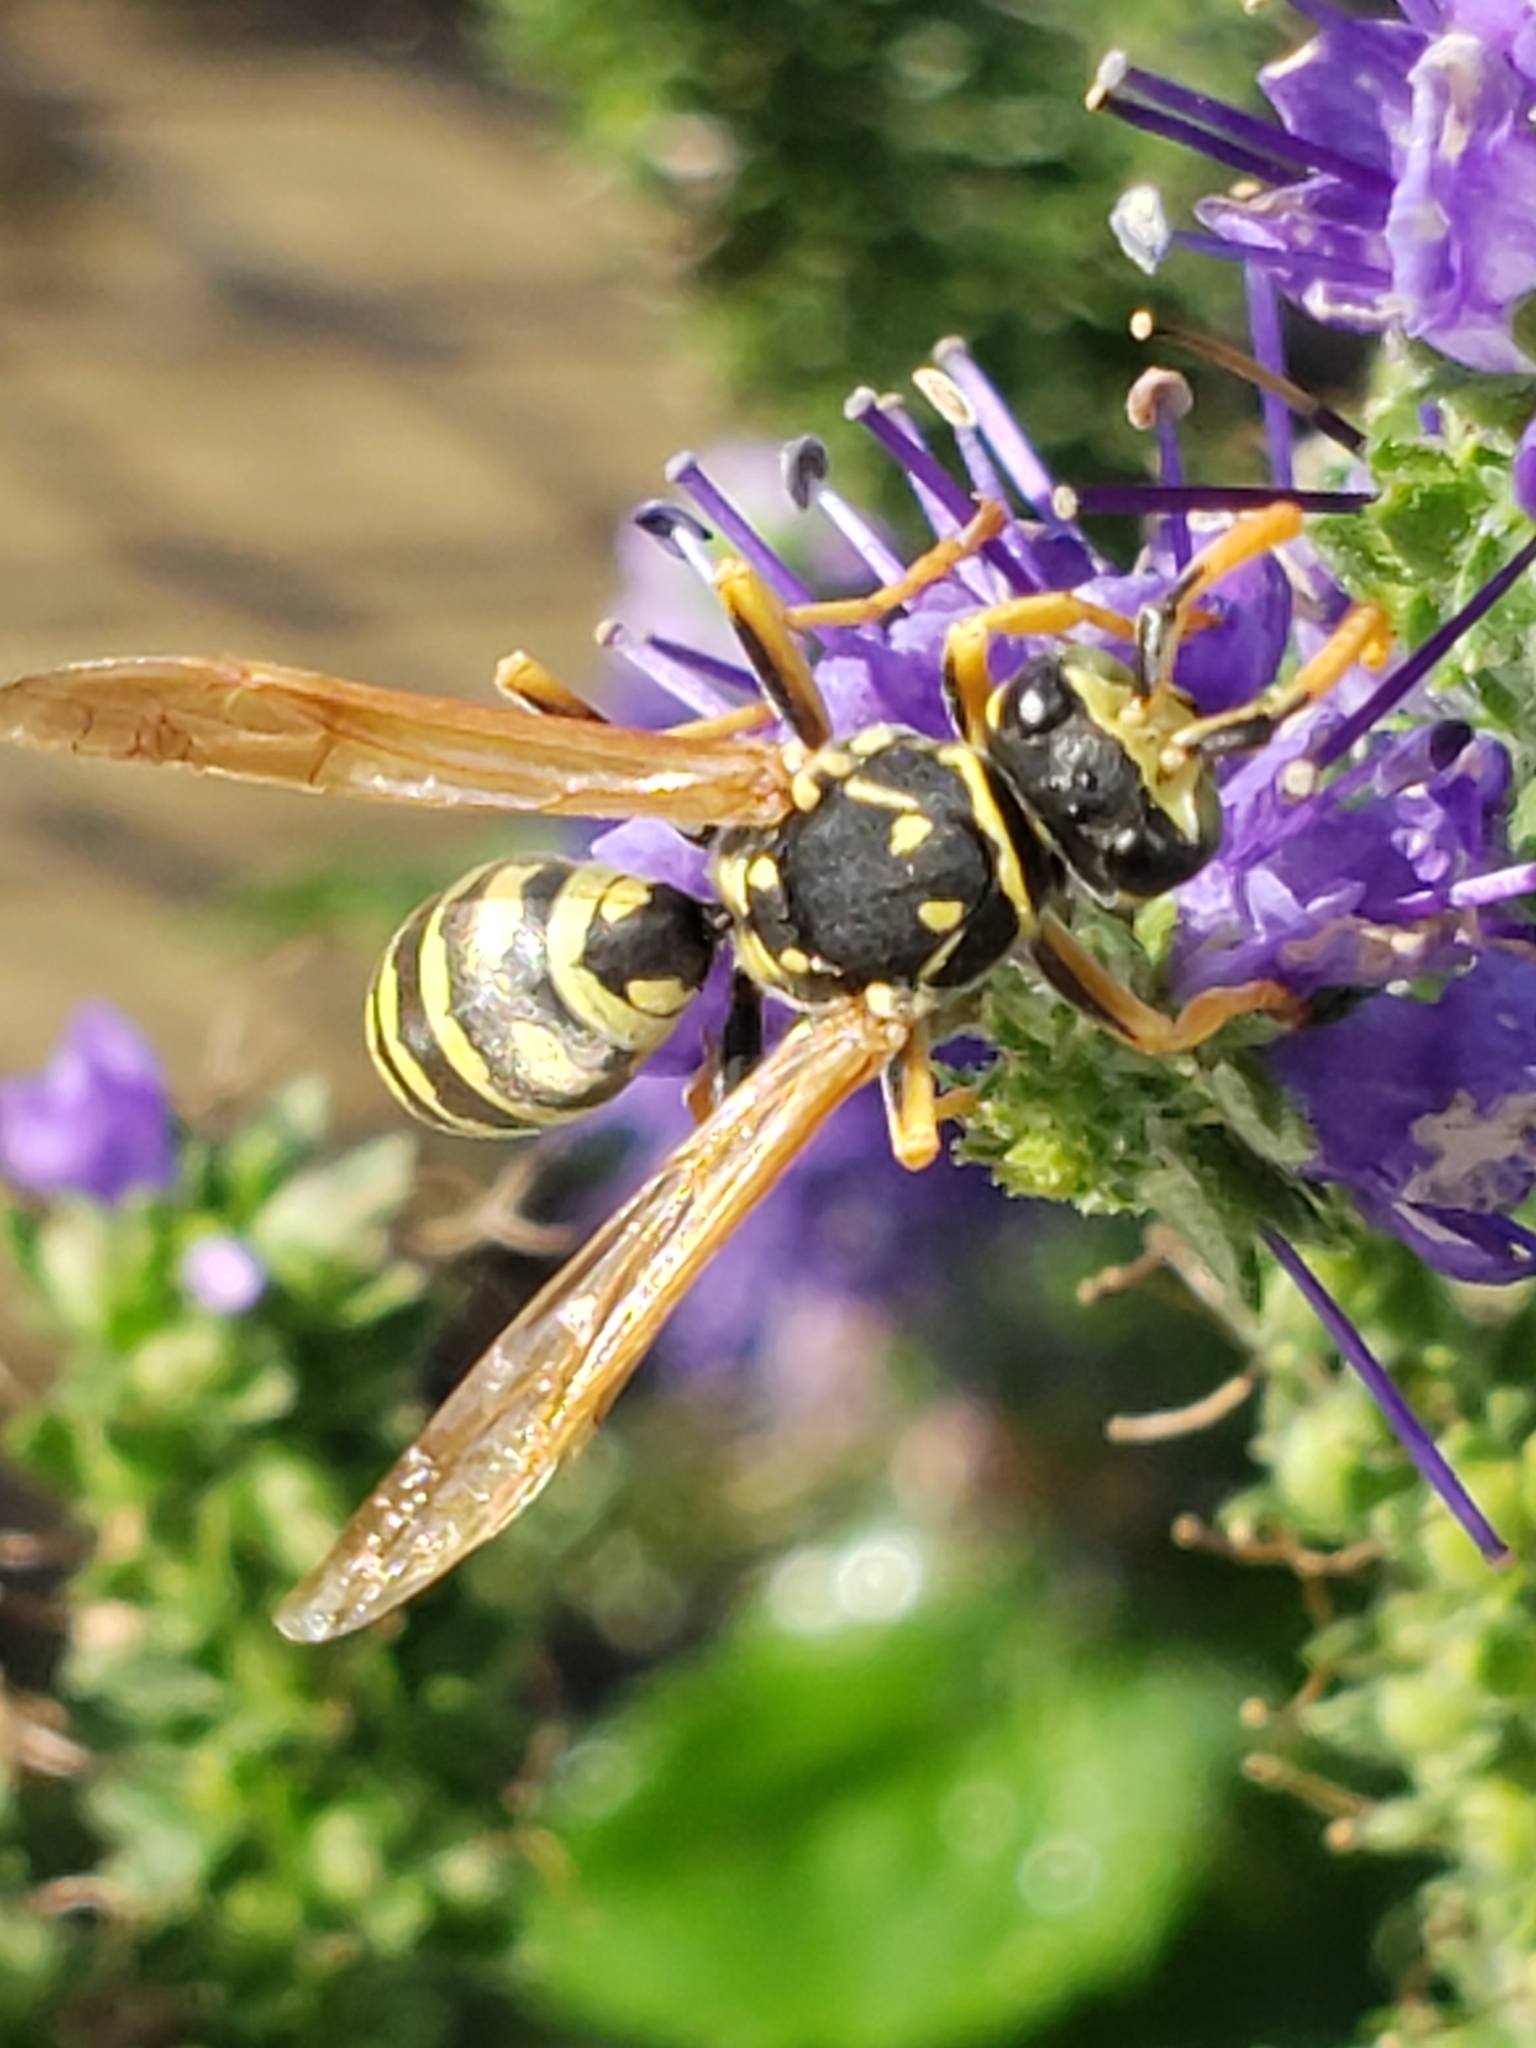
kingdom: Animalia
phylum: Arthropoda
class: Insecta
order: Hymenoptera
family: Eumenidae
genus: Polistes
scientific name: Polistes dominula
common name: Paper wasp
